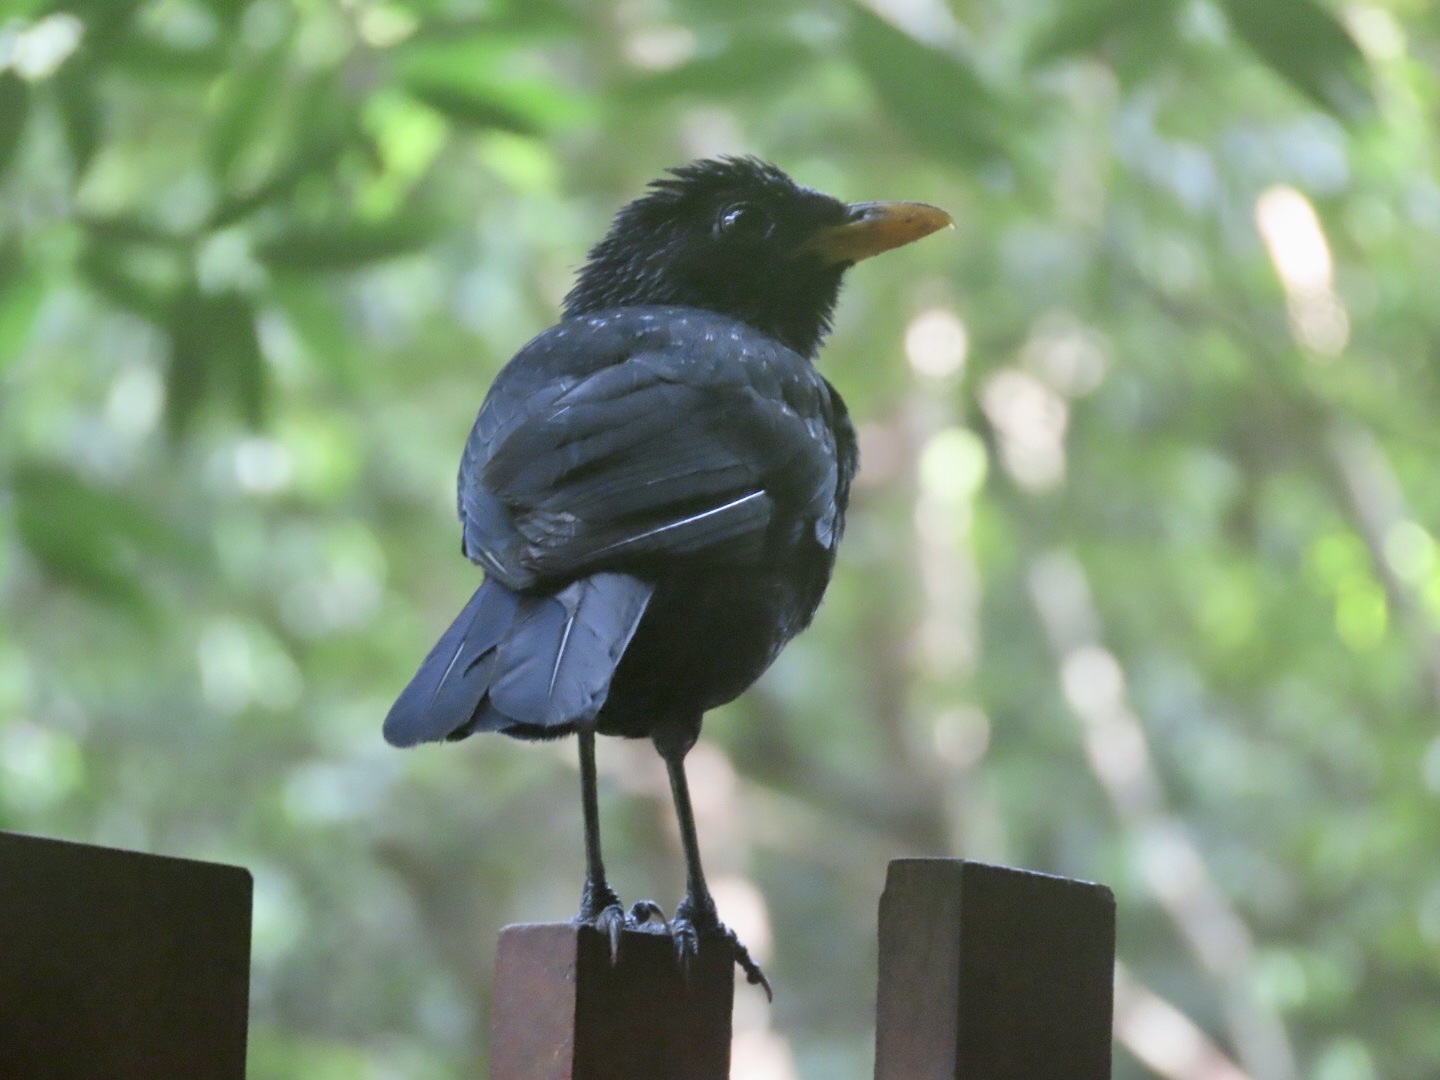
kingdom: Animalia
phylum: Chordata
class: Aves
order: Passeriformes
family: Muscicapidae
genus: Myophonus
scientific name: Myophonus caeruleus
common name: Blue whistling-thrush
